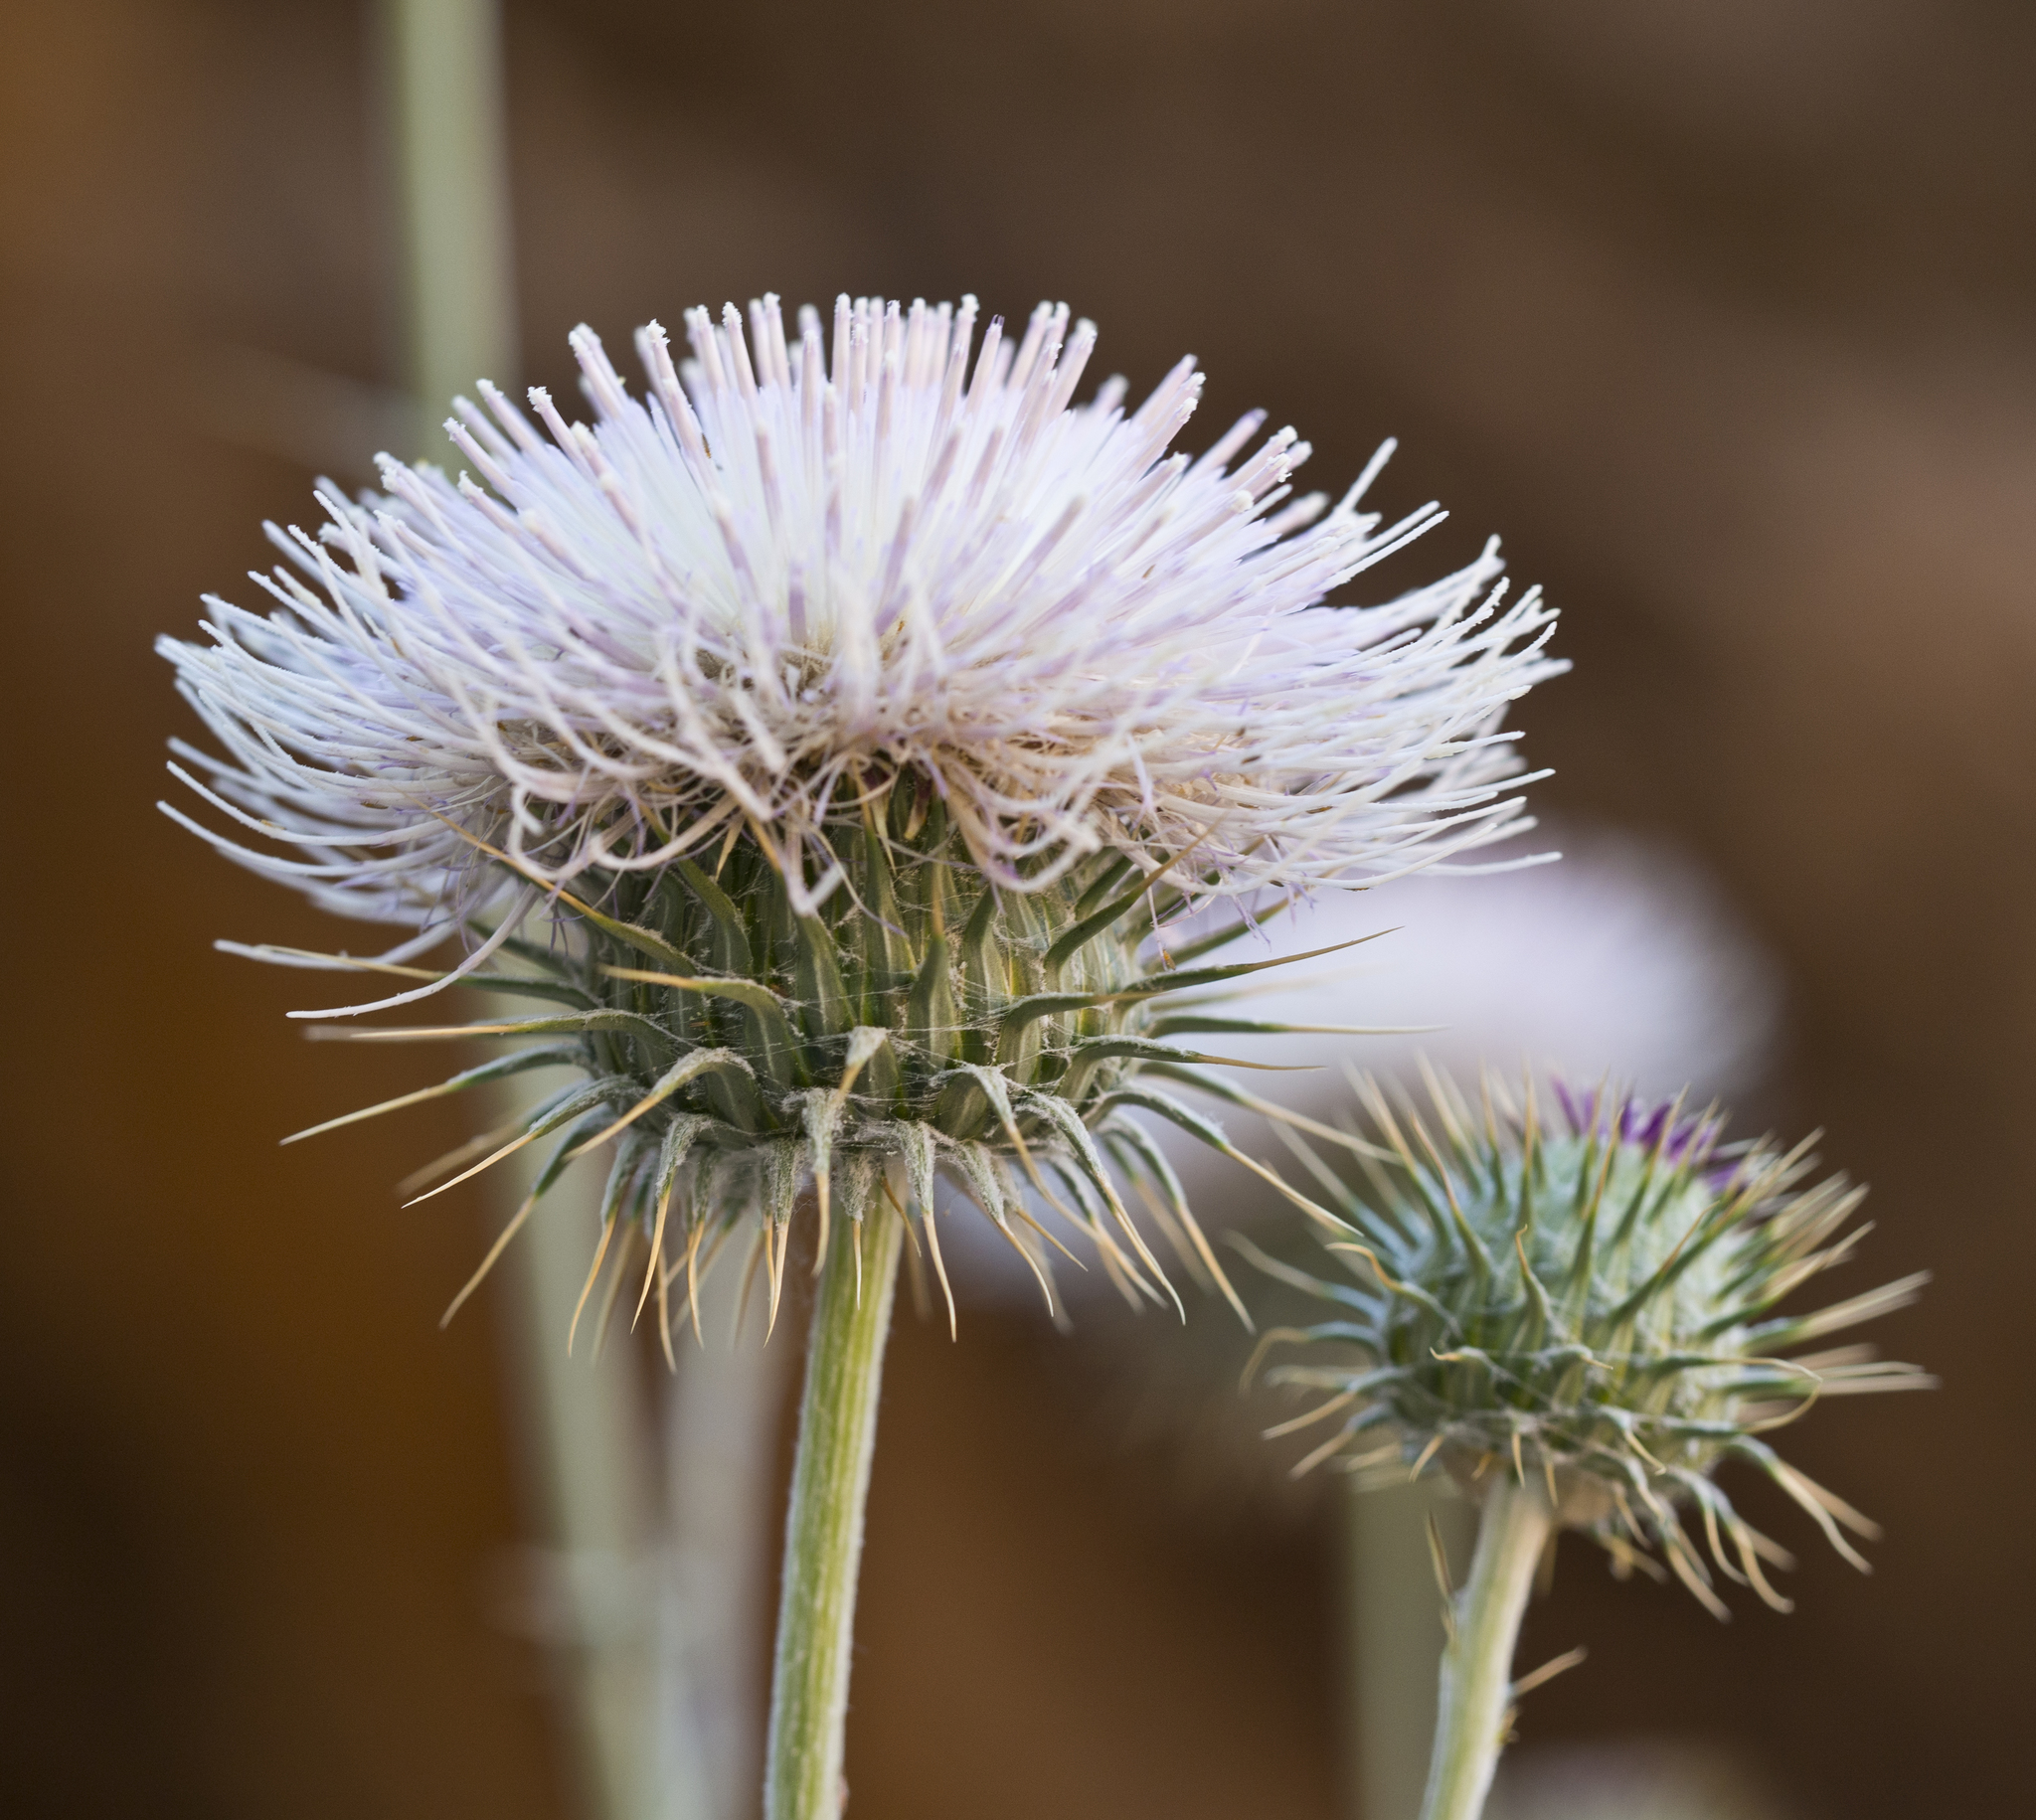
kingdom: Plantae
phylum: Tracheophyta
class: Magnoliopsida
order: Asterales
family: Asteraceae
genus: Cirsium
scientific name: Cirsium neomexicanum
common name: New mexico thistle
